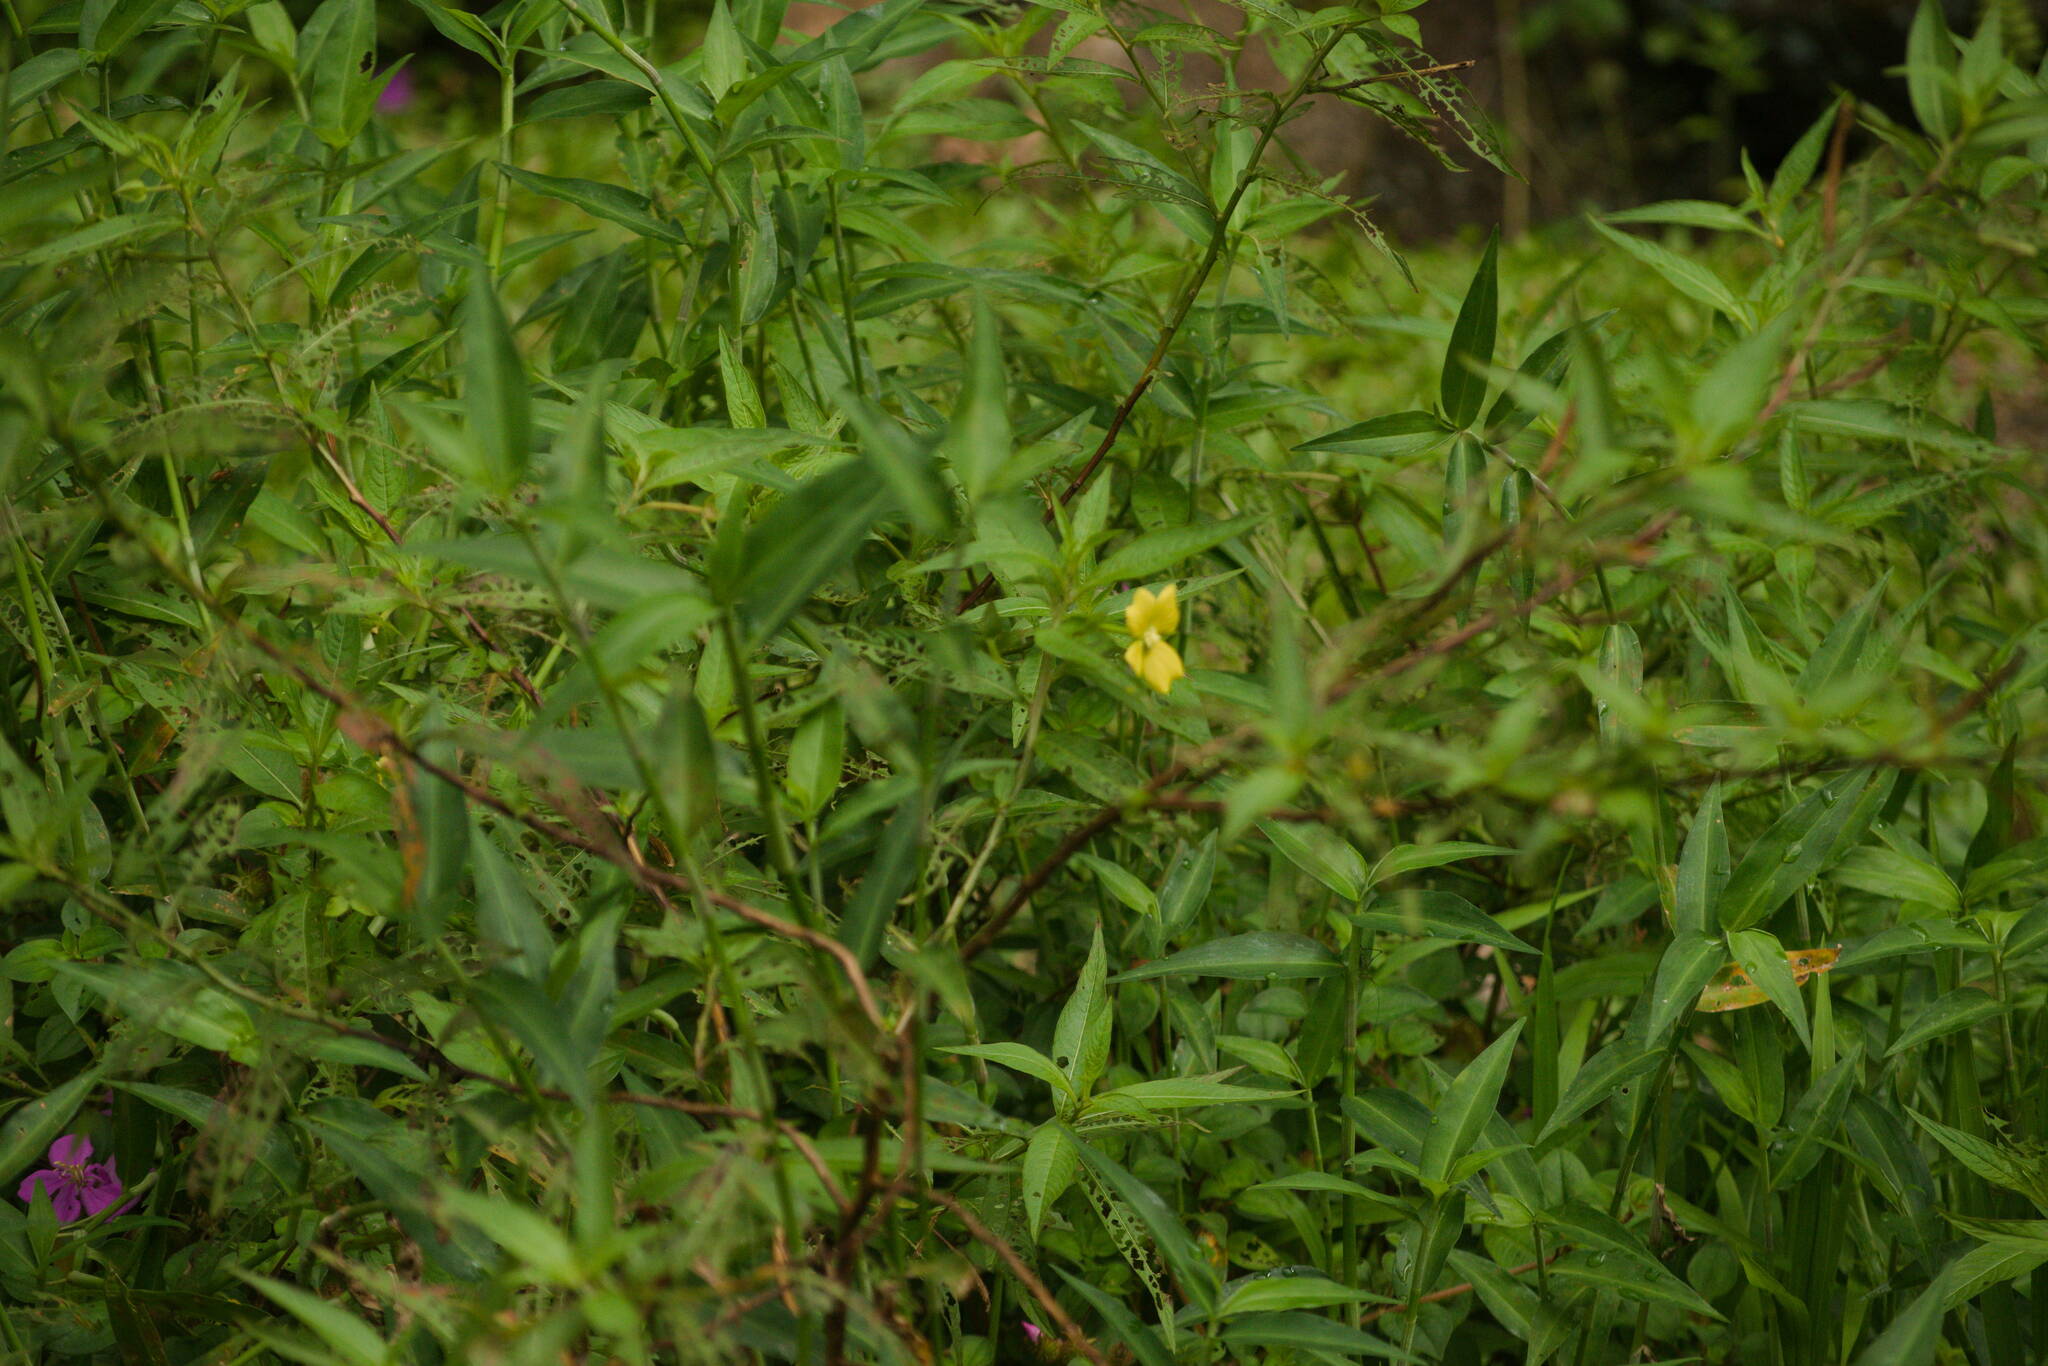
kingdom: Plantae
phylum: Tracheophyta
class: Magnoliopsida
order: Myrtales
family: Onagraceae
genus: Ludwigia
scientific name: Ludwigia octovalvis
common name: Water-primrose
